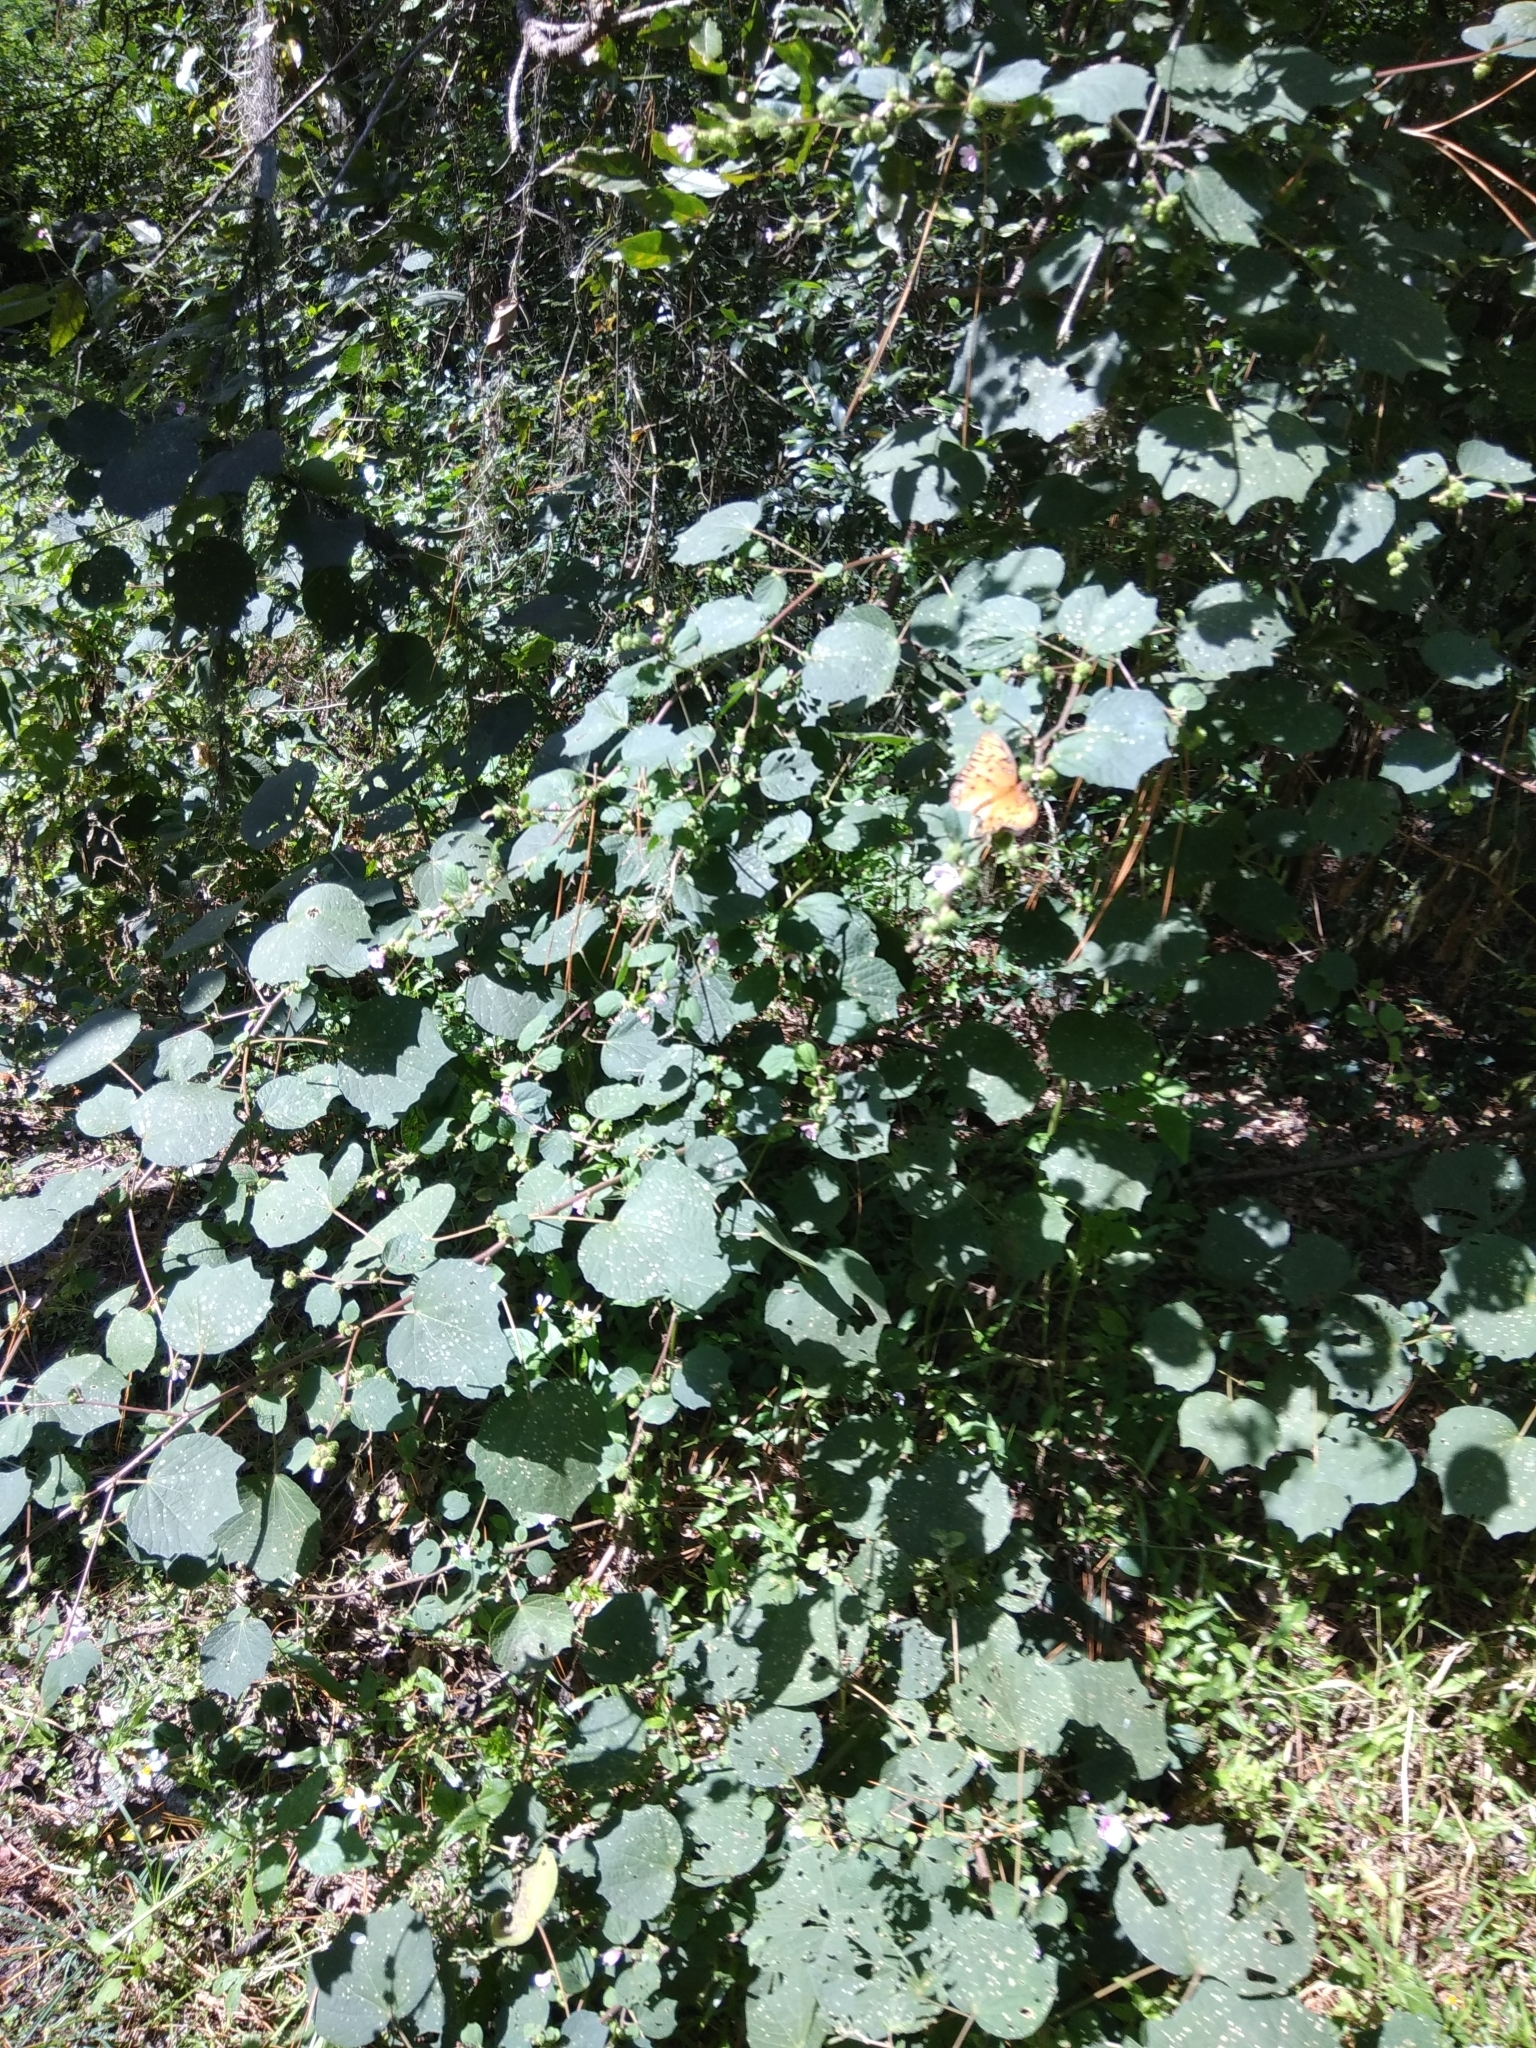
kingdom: Plantae
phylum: Tracheophyta
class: Magnoliopsida
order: Malvales
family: Malvaceae
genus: Urena
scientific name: Urena lobata
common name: Caesarweed
